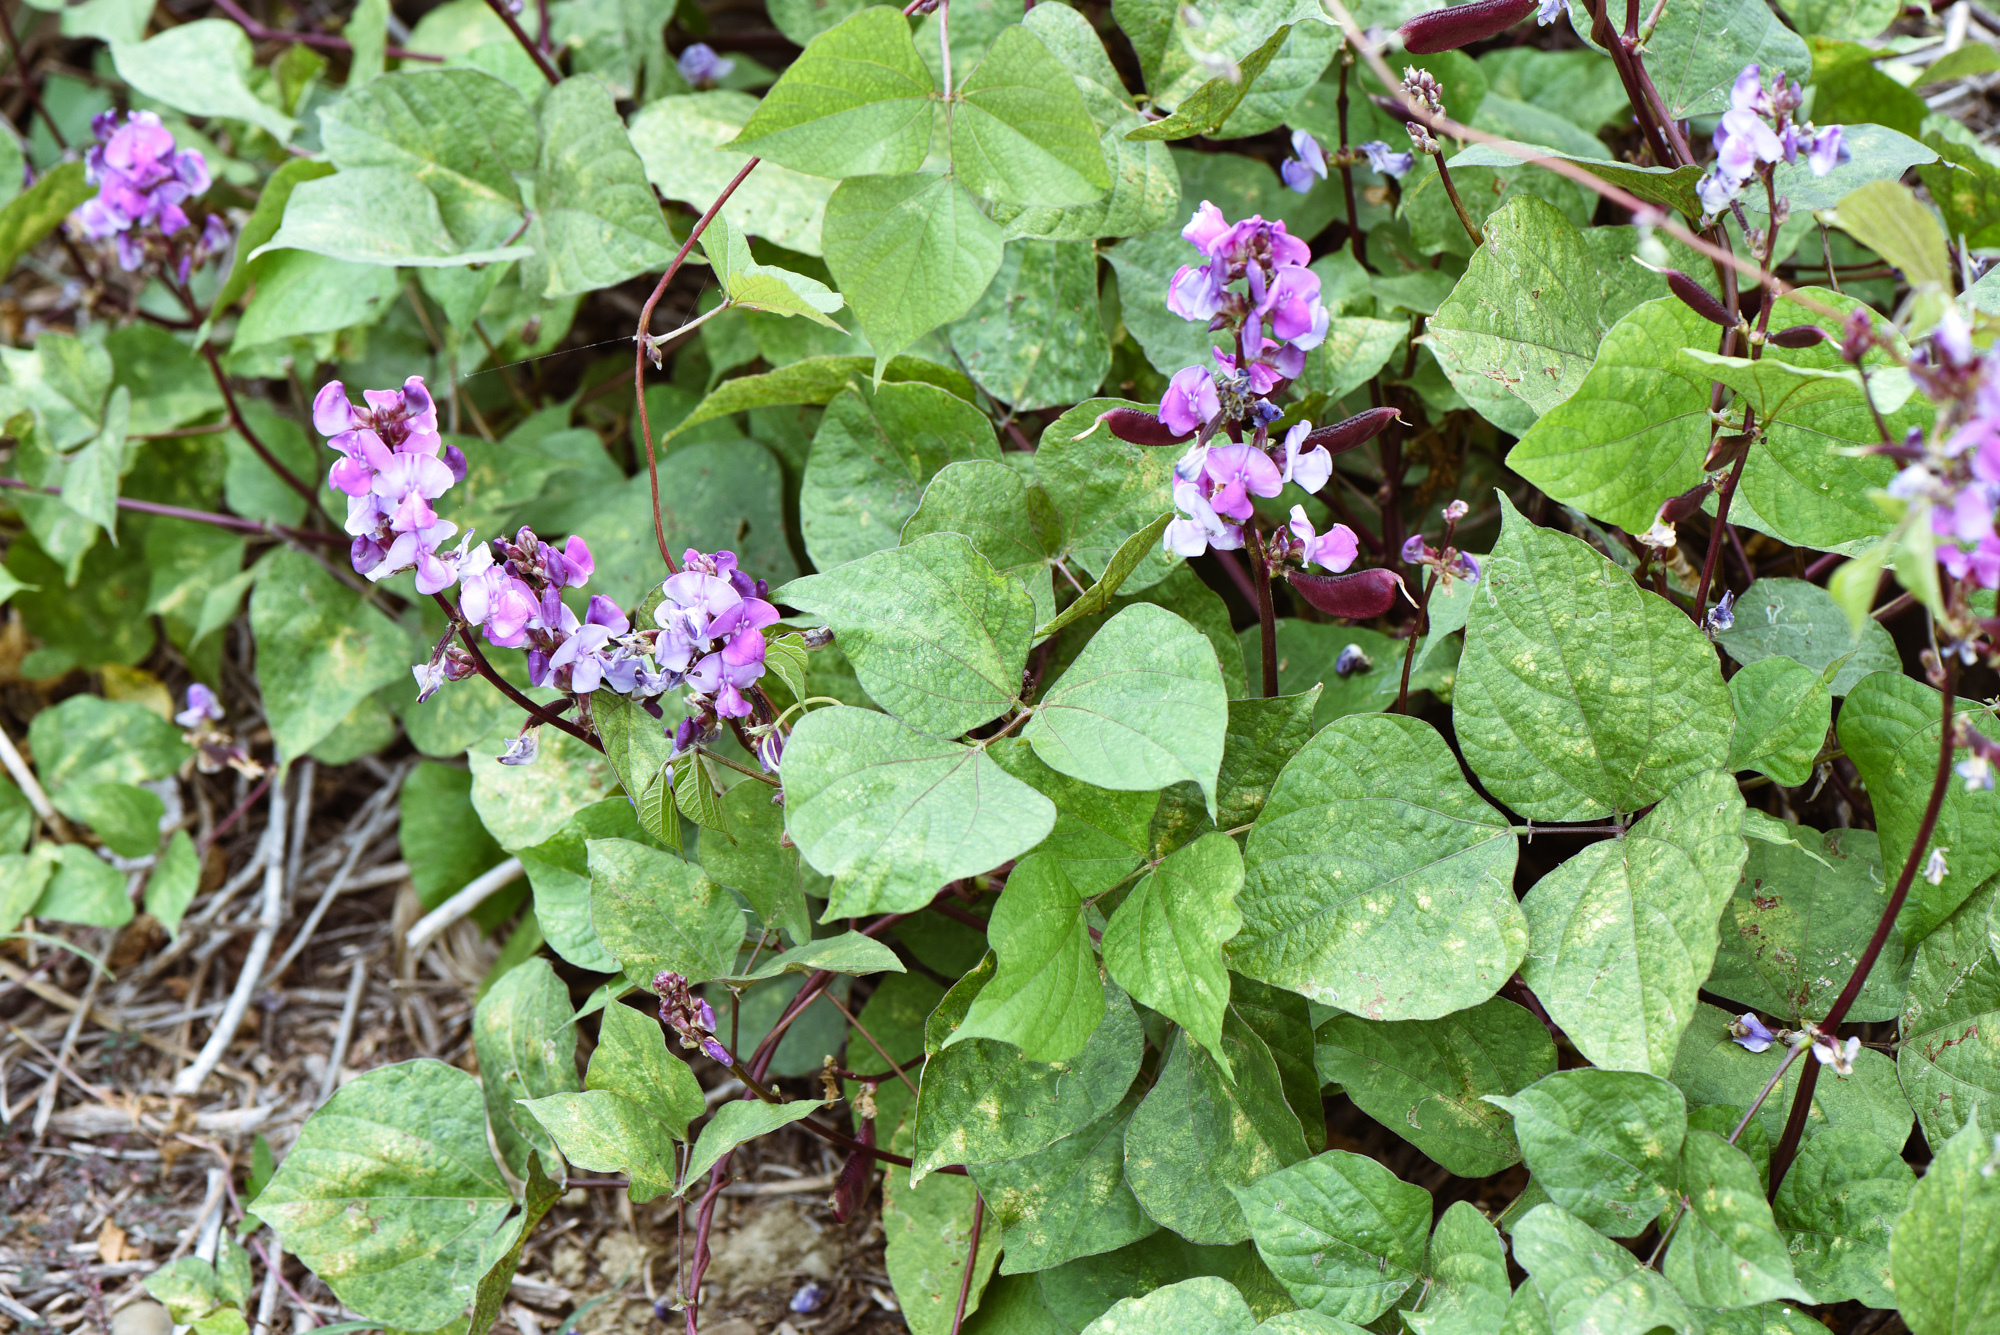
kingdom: Plantae
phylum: Tracheophyta
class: Magnoliopsida
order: Fabales
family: Fabaceae
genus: Lablab
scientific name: Lablab purpureus
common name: Lablab-bean
